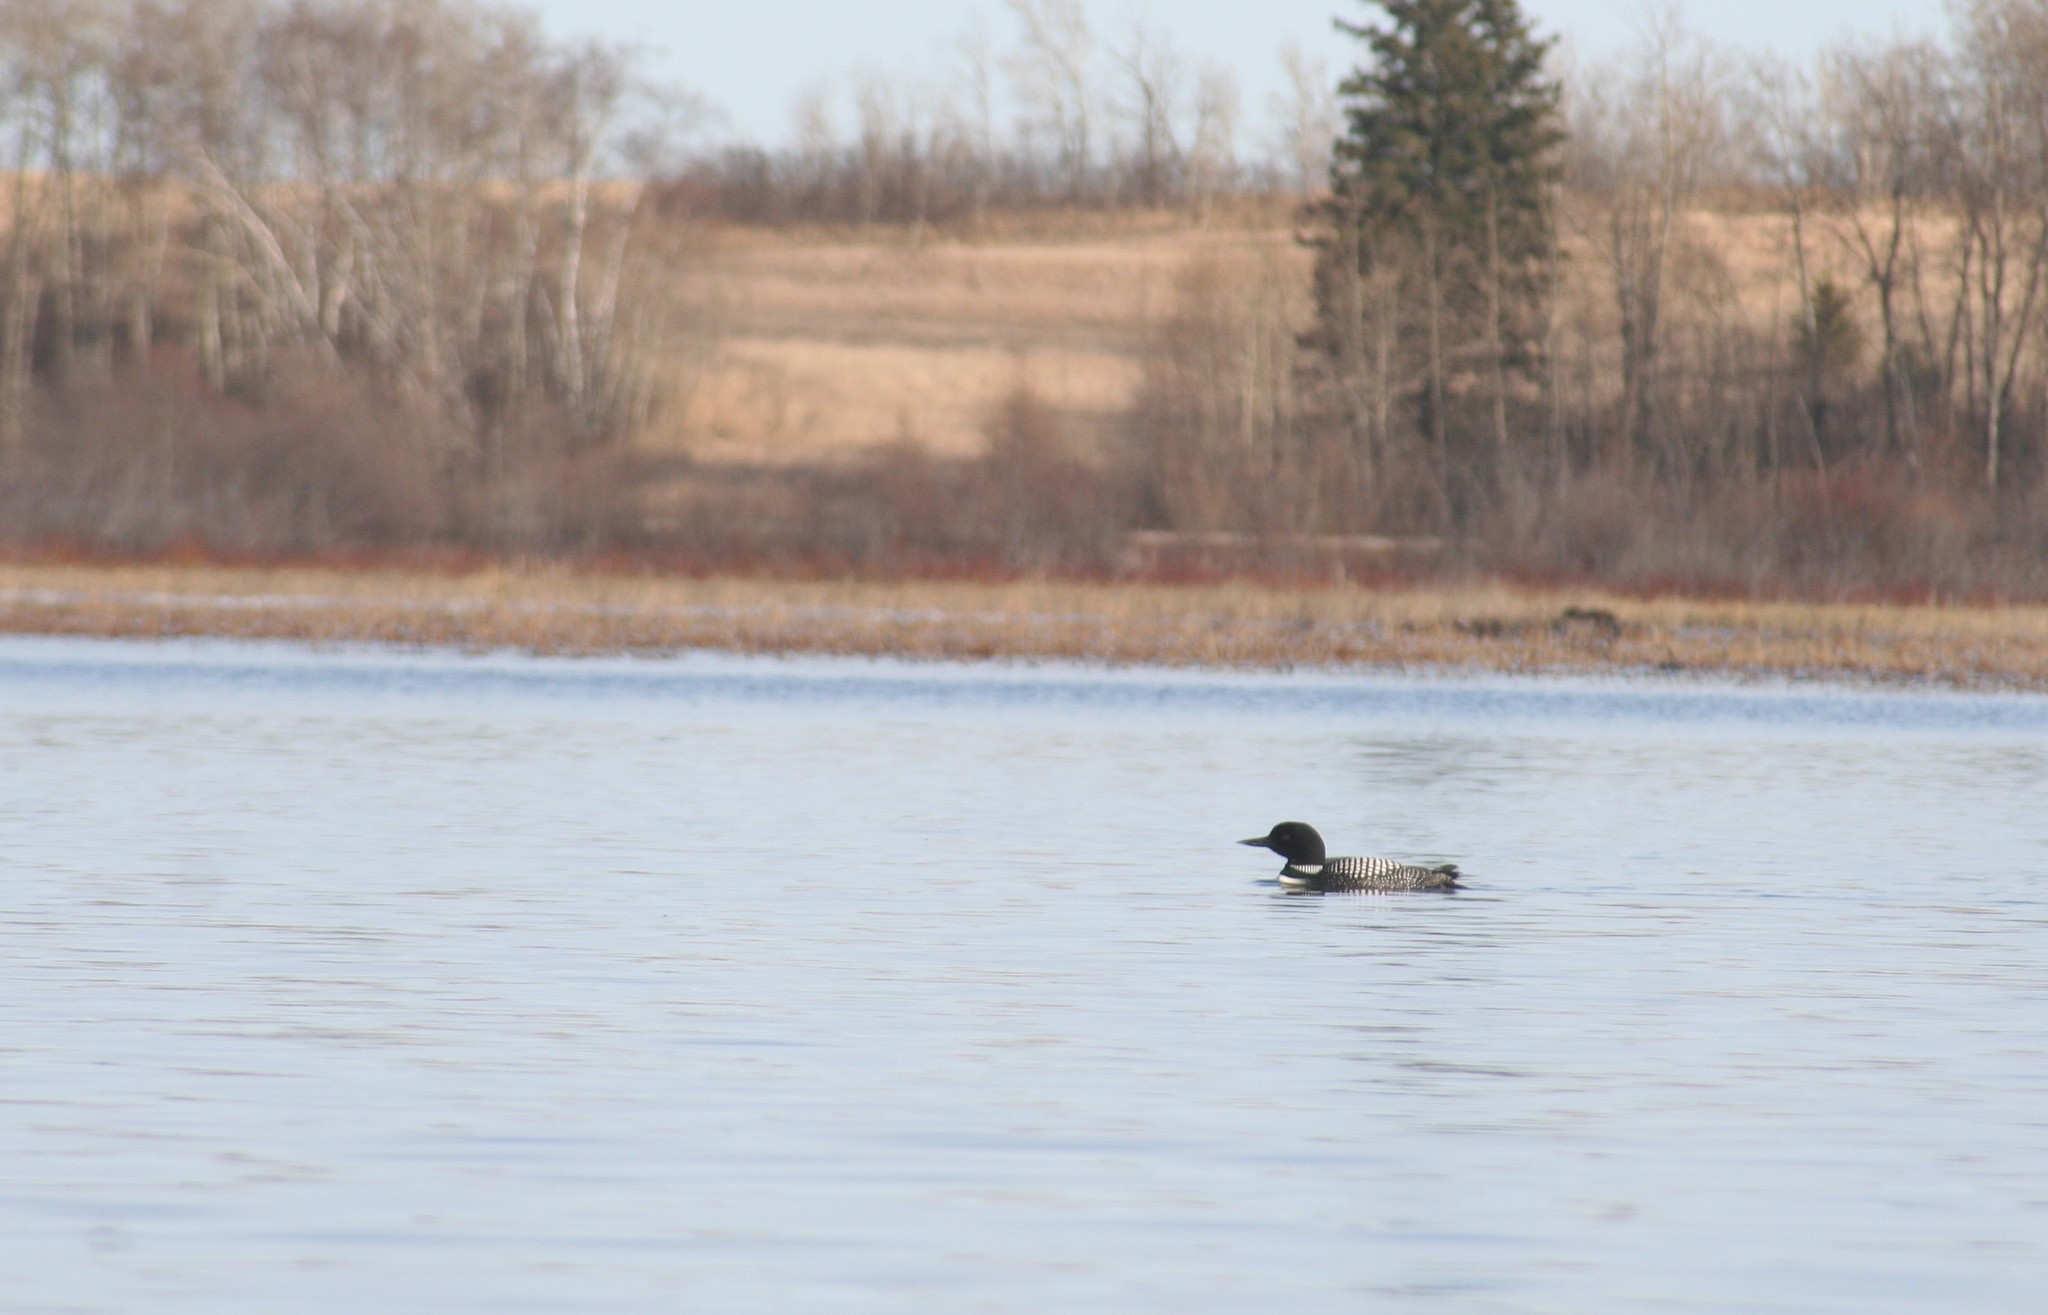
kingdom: Animalia
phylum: Chordata
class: Aves
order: Gaviiformes
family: Gaviidae
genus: Gavia
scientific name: Gavia immer
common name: Common loon
